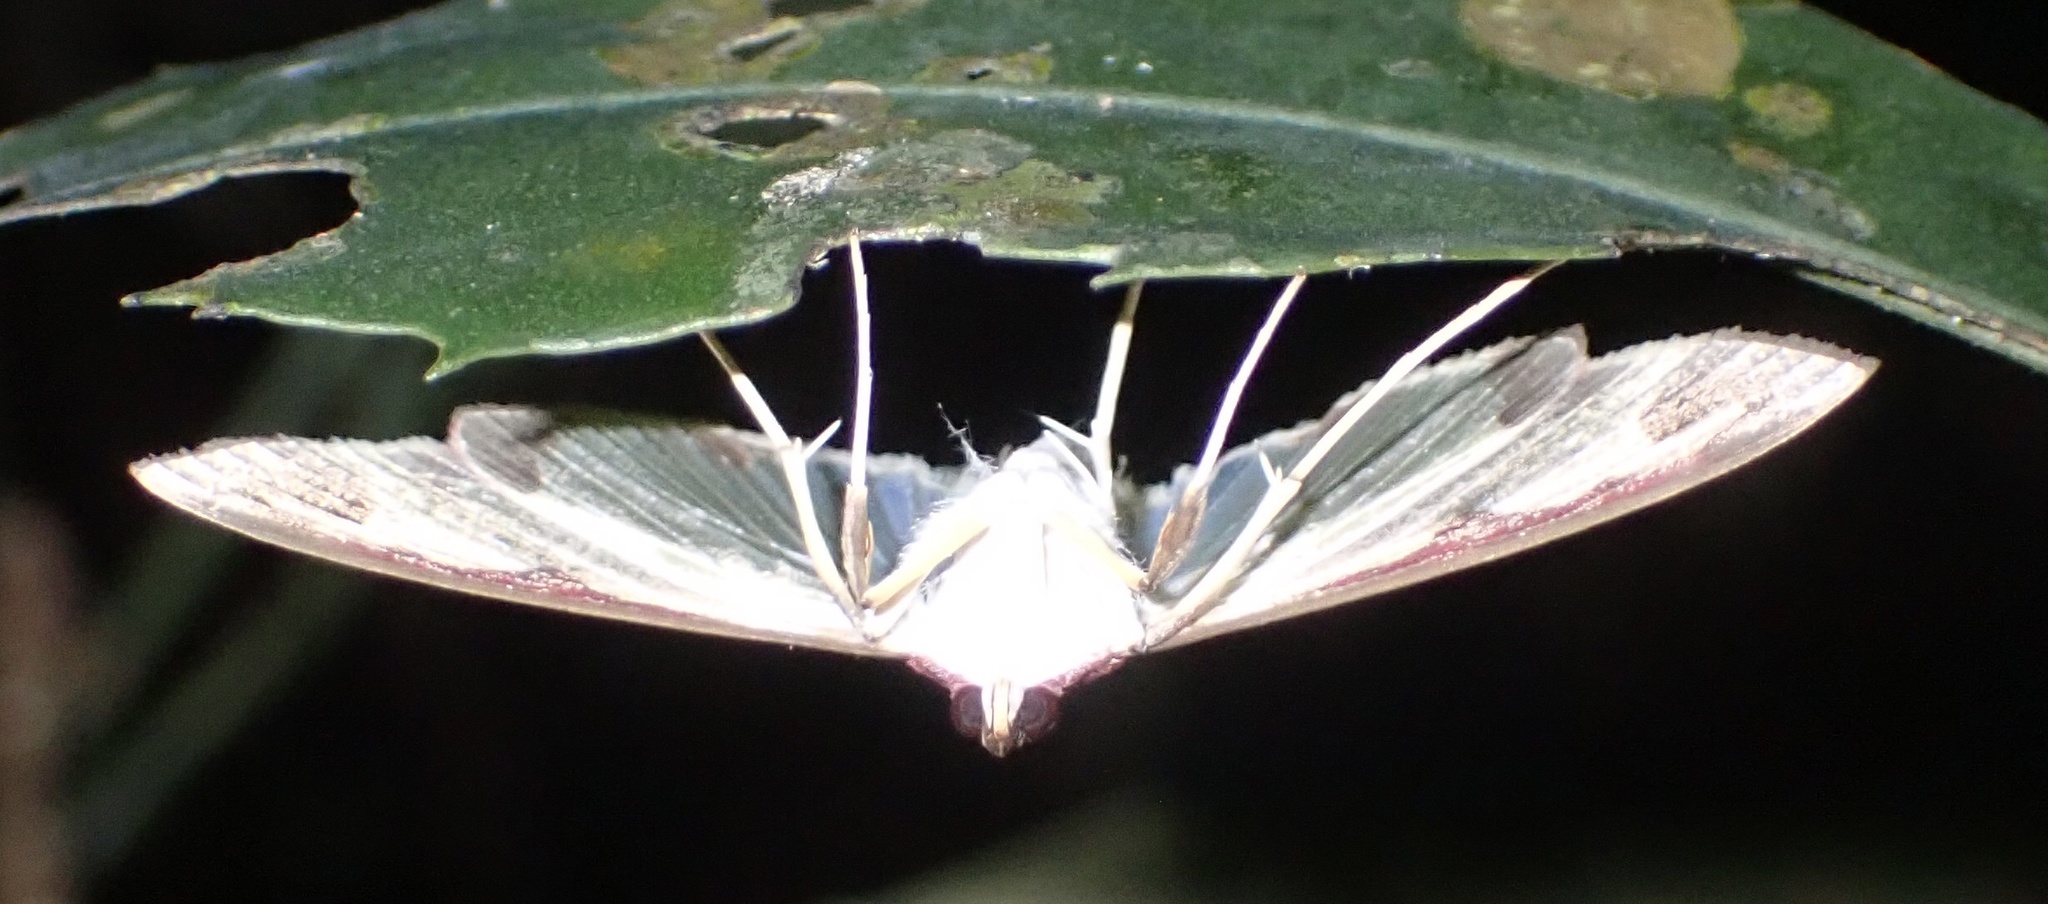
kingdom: Animalia
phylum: Arthropoda
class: Insecta
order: Lepidoptera
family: Crambidae
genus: Cadarena
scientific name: Cadarena pudoraria
